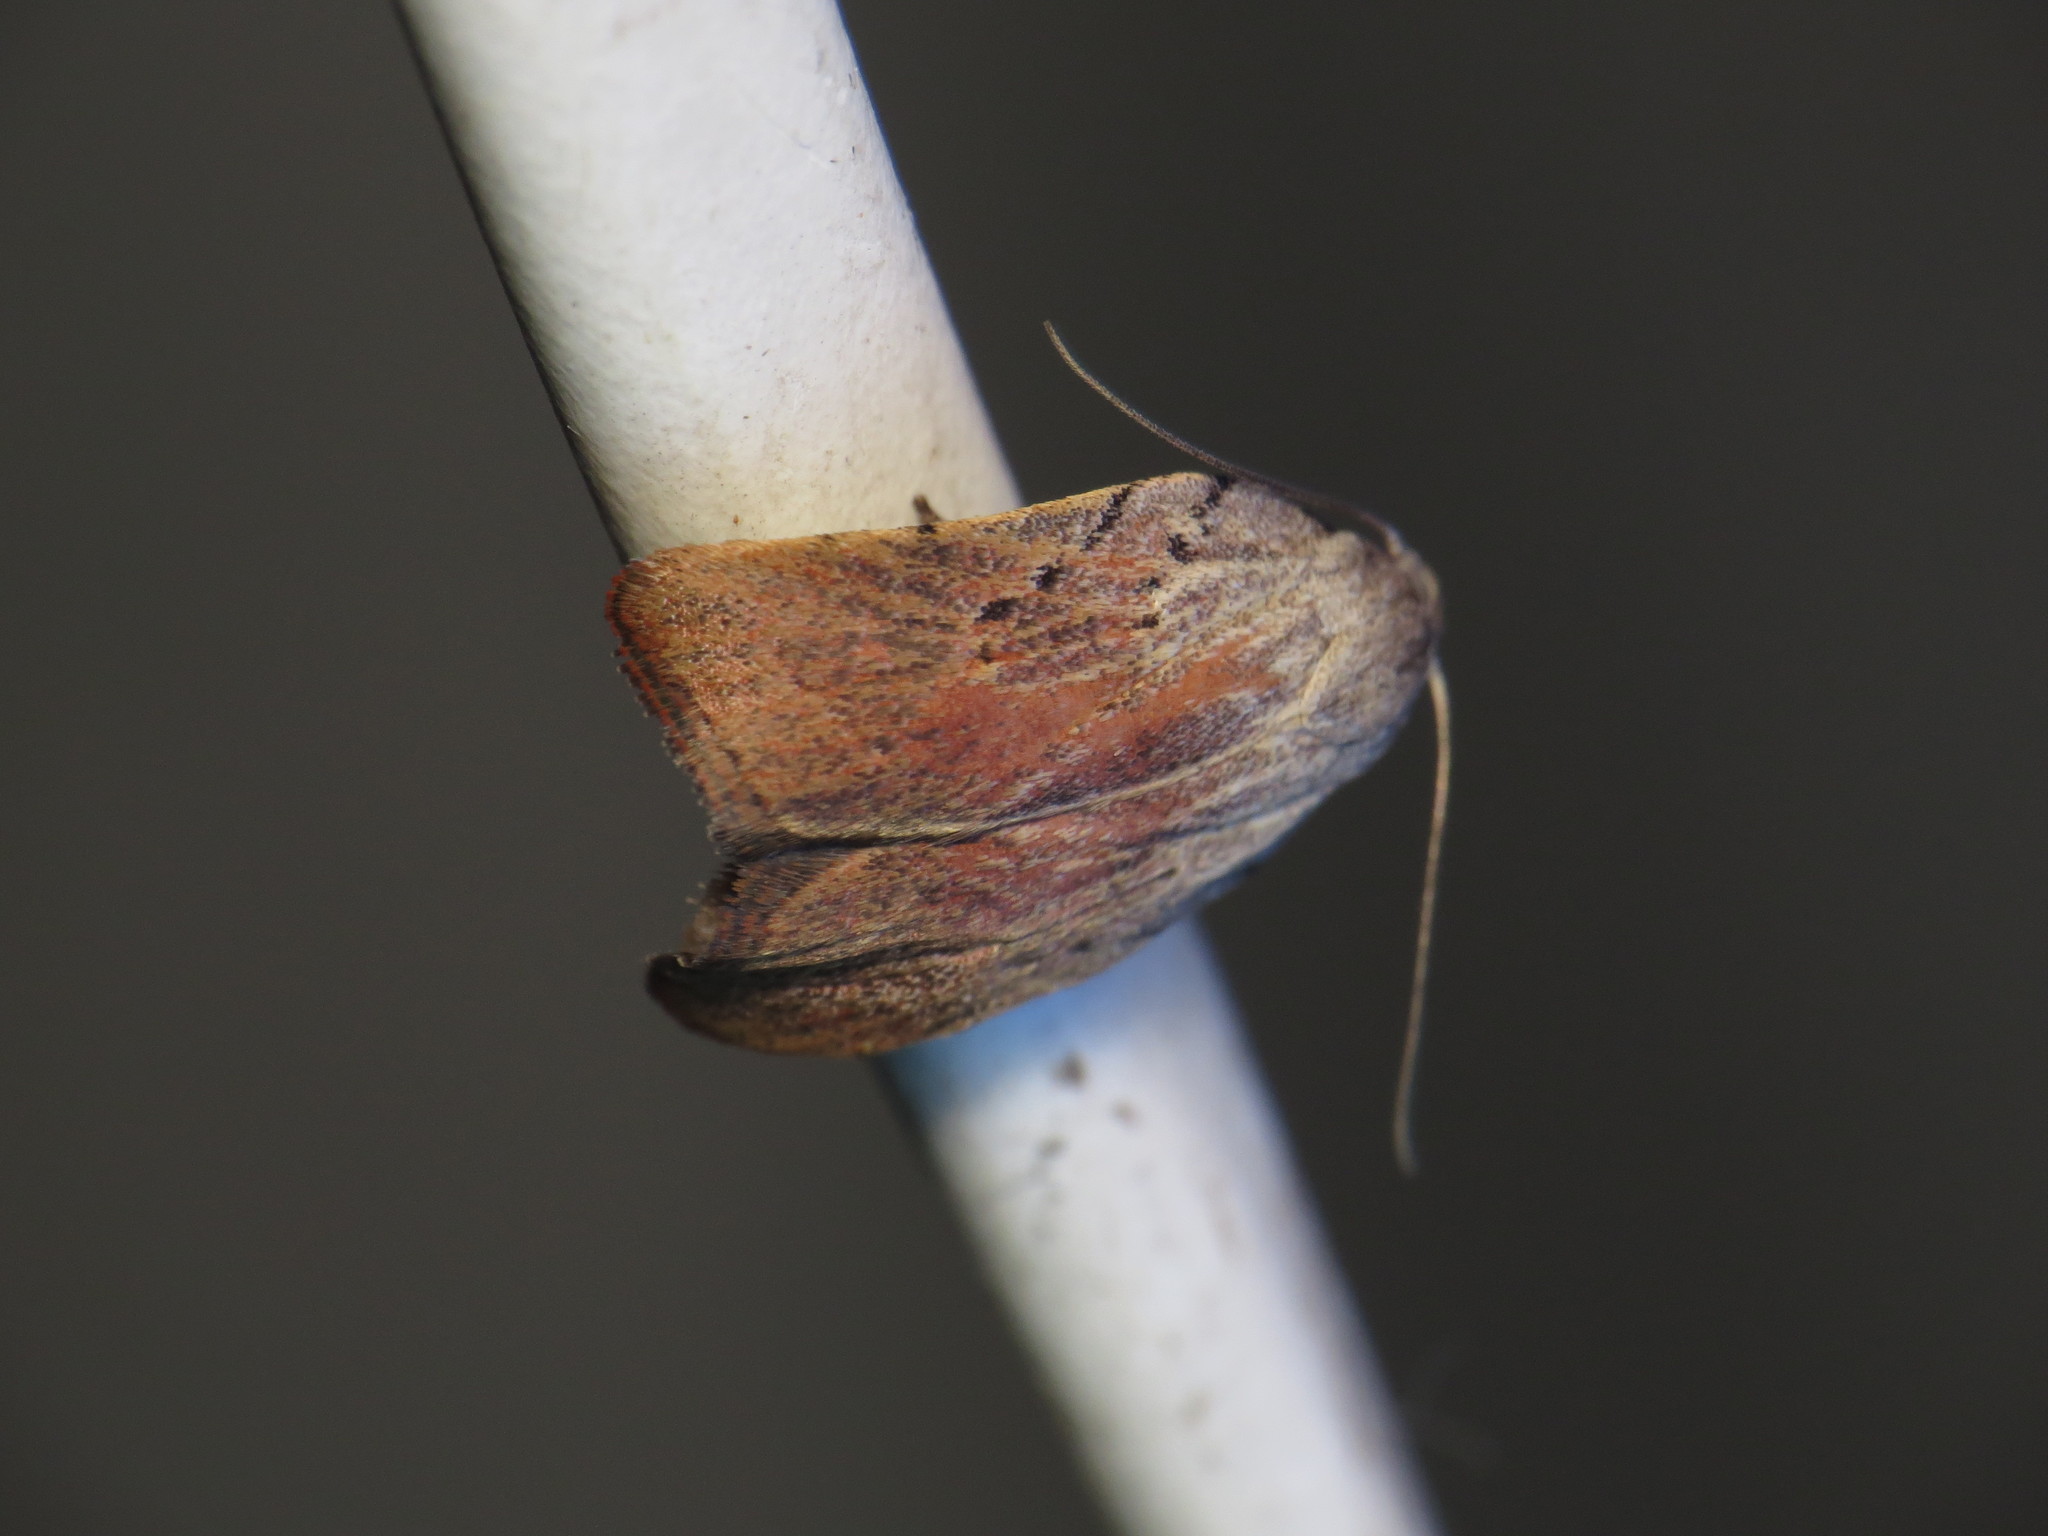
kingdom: Animalia
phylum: Arthropoda
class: Insecta
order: Lepidoptera
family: Oecophoridae
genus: Tortricopsis
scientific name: Tortricopsis pyroptis
